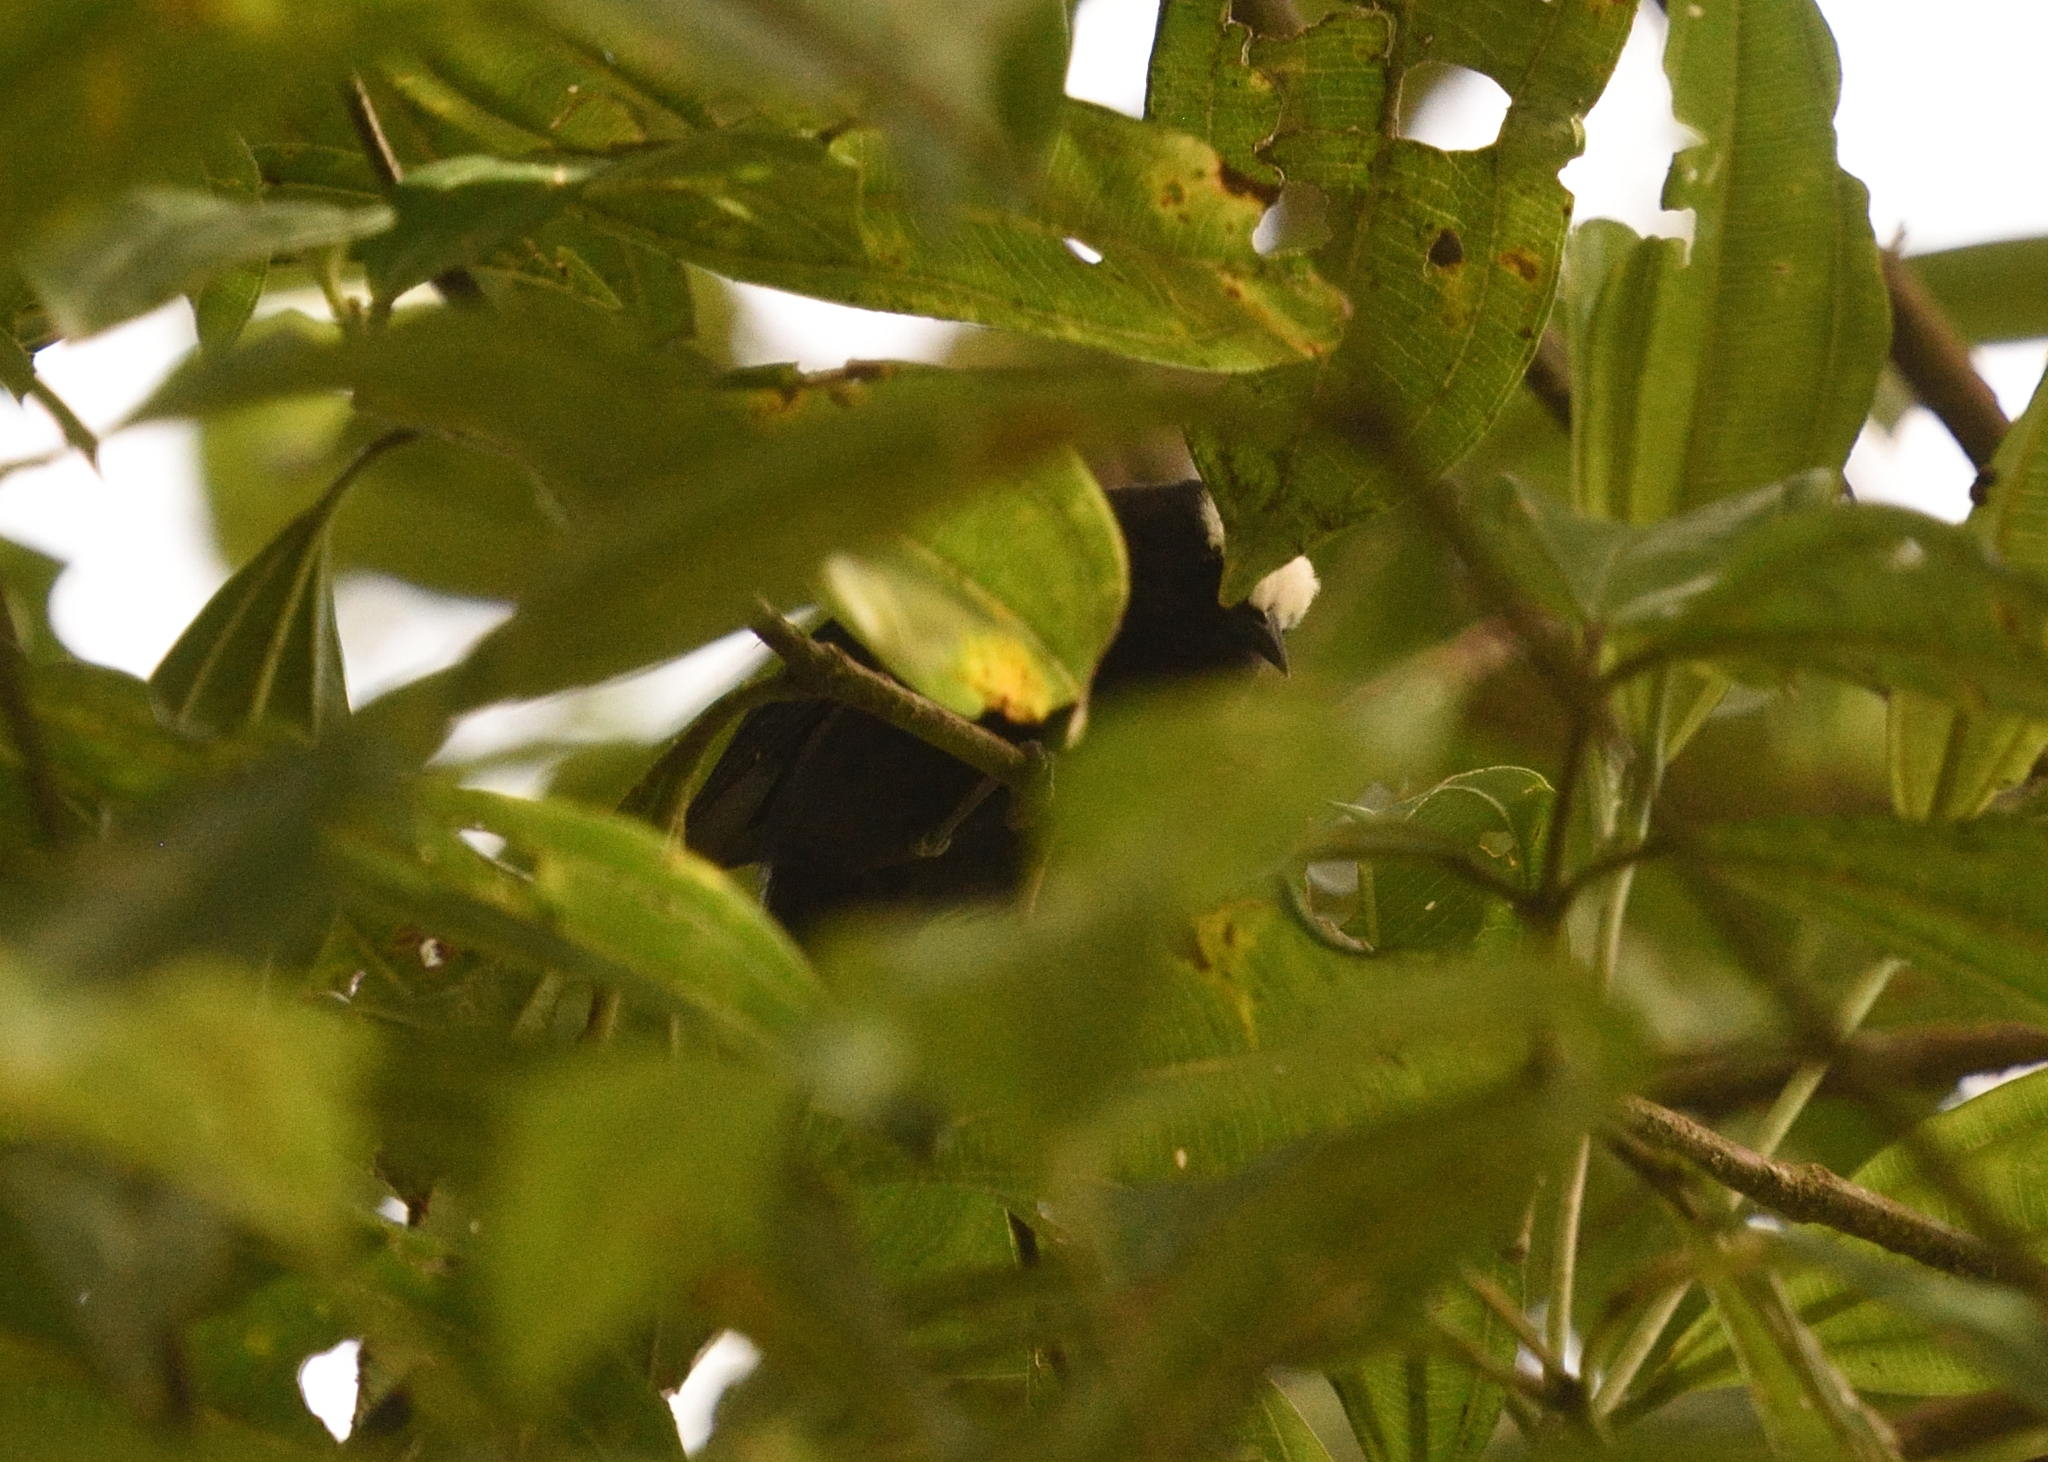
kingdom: Animalia
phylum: Chordata
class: Aves
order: Passeriformes
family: Thraupidae
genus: Conirostrum
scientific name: Conirostrum albifrons
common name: Capped conebill
